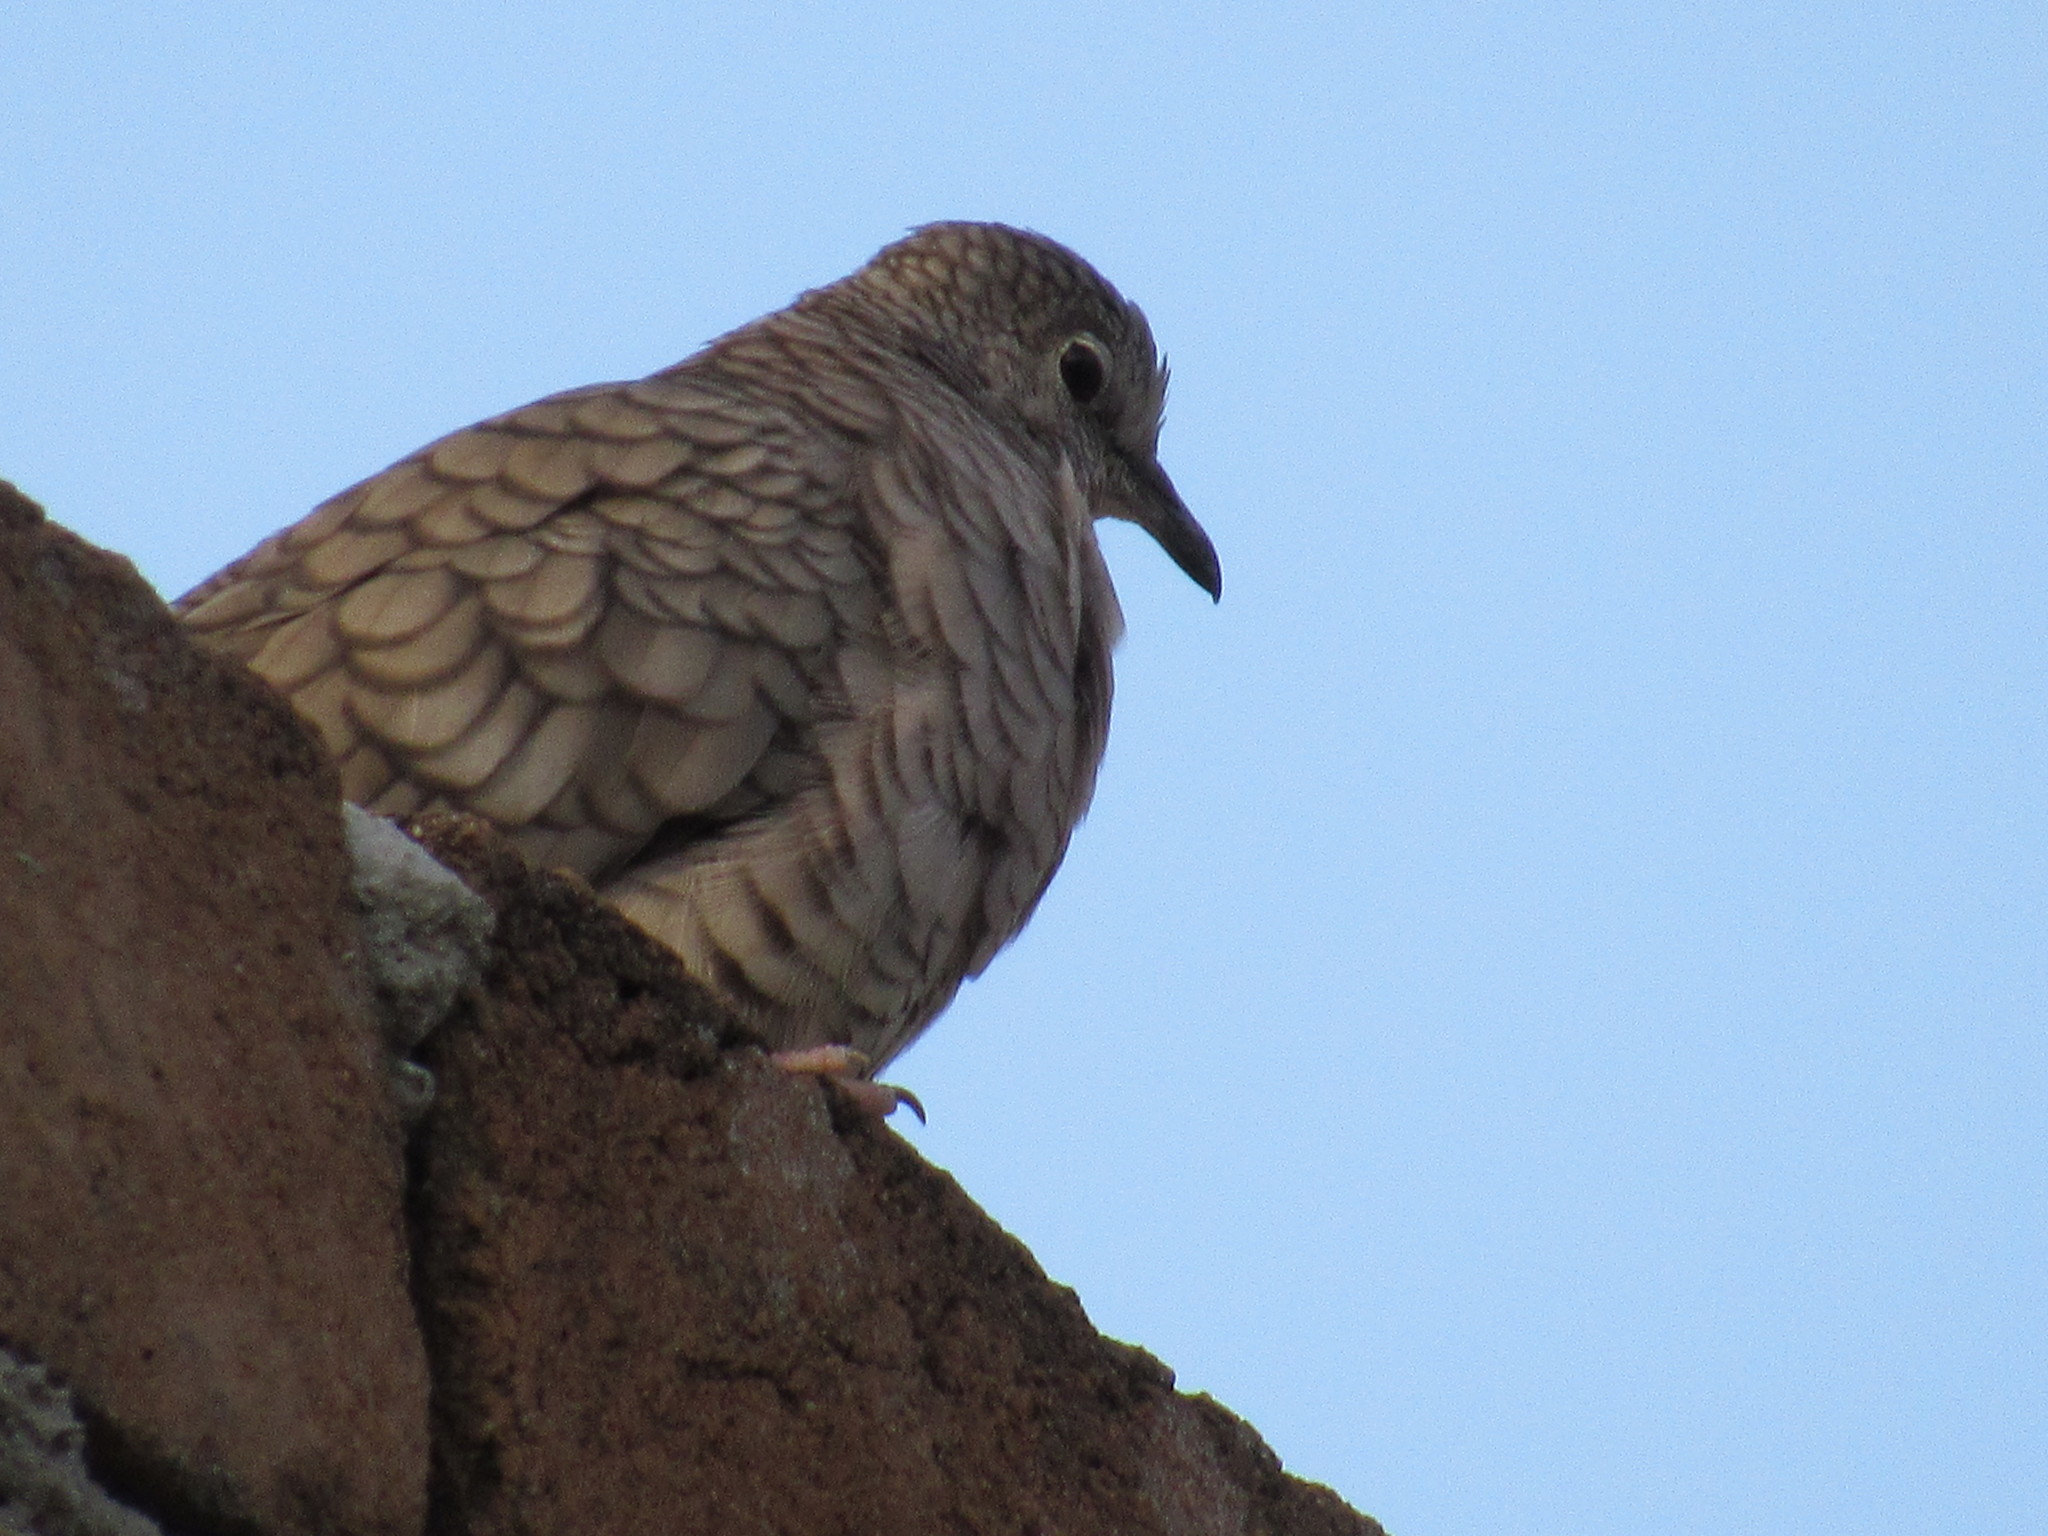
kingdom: Animalia
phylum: Chordata
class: Aves
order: Columbiformes
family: Columbidae
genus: Columbina
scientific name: Columbina inca
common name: Inca dove
